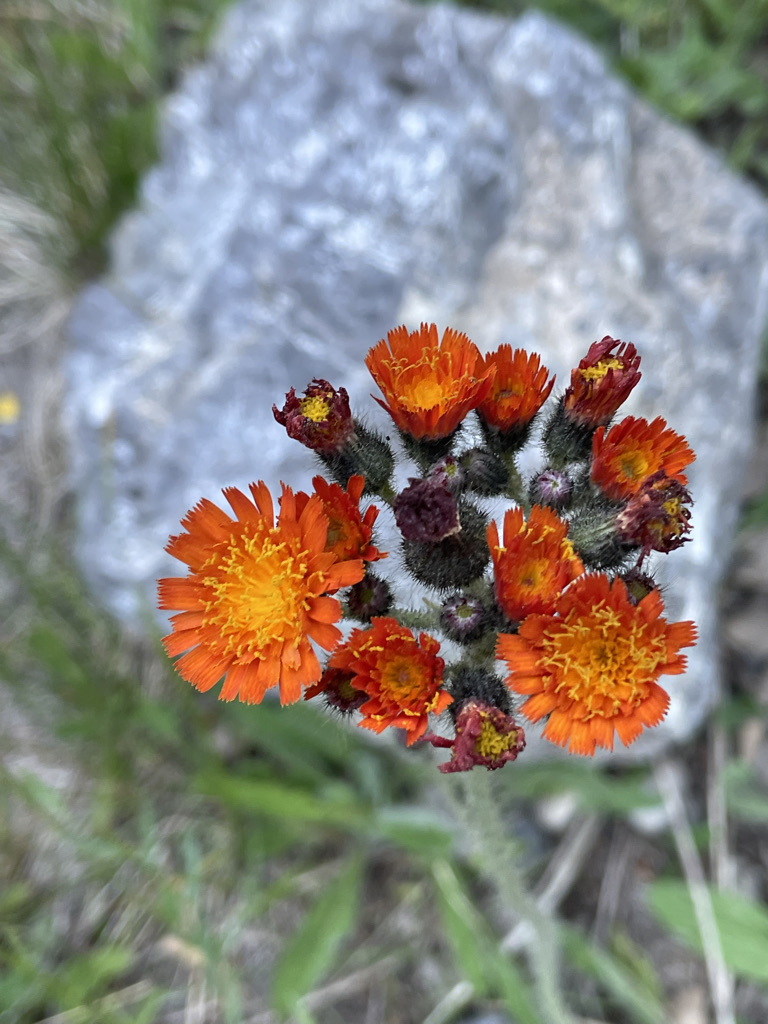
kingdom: Plantae
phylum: Tracheophyta
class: Magnoliopsida
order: Asterales
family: Asteraceae
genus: Pilosella
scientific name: Pilosella aurantiaca
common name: Fox-and-cubs
